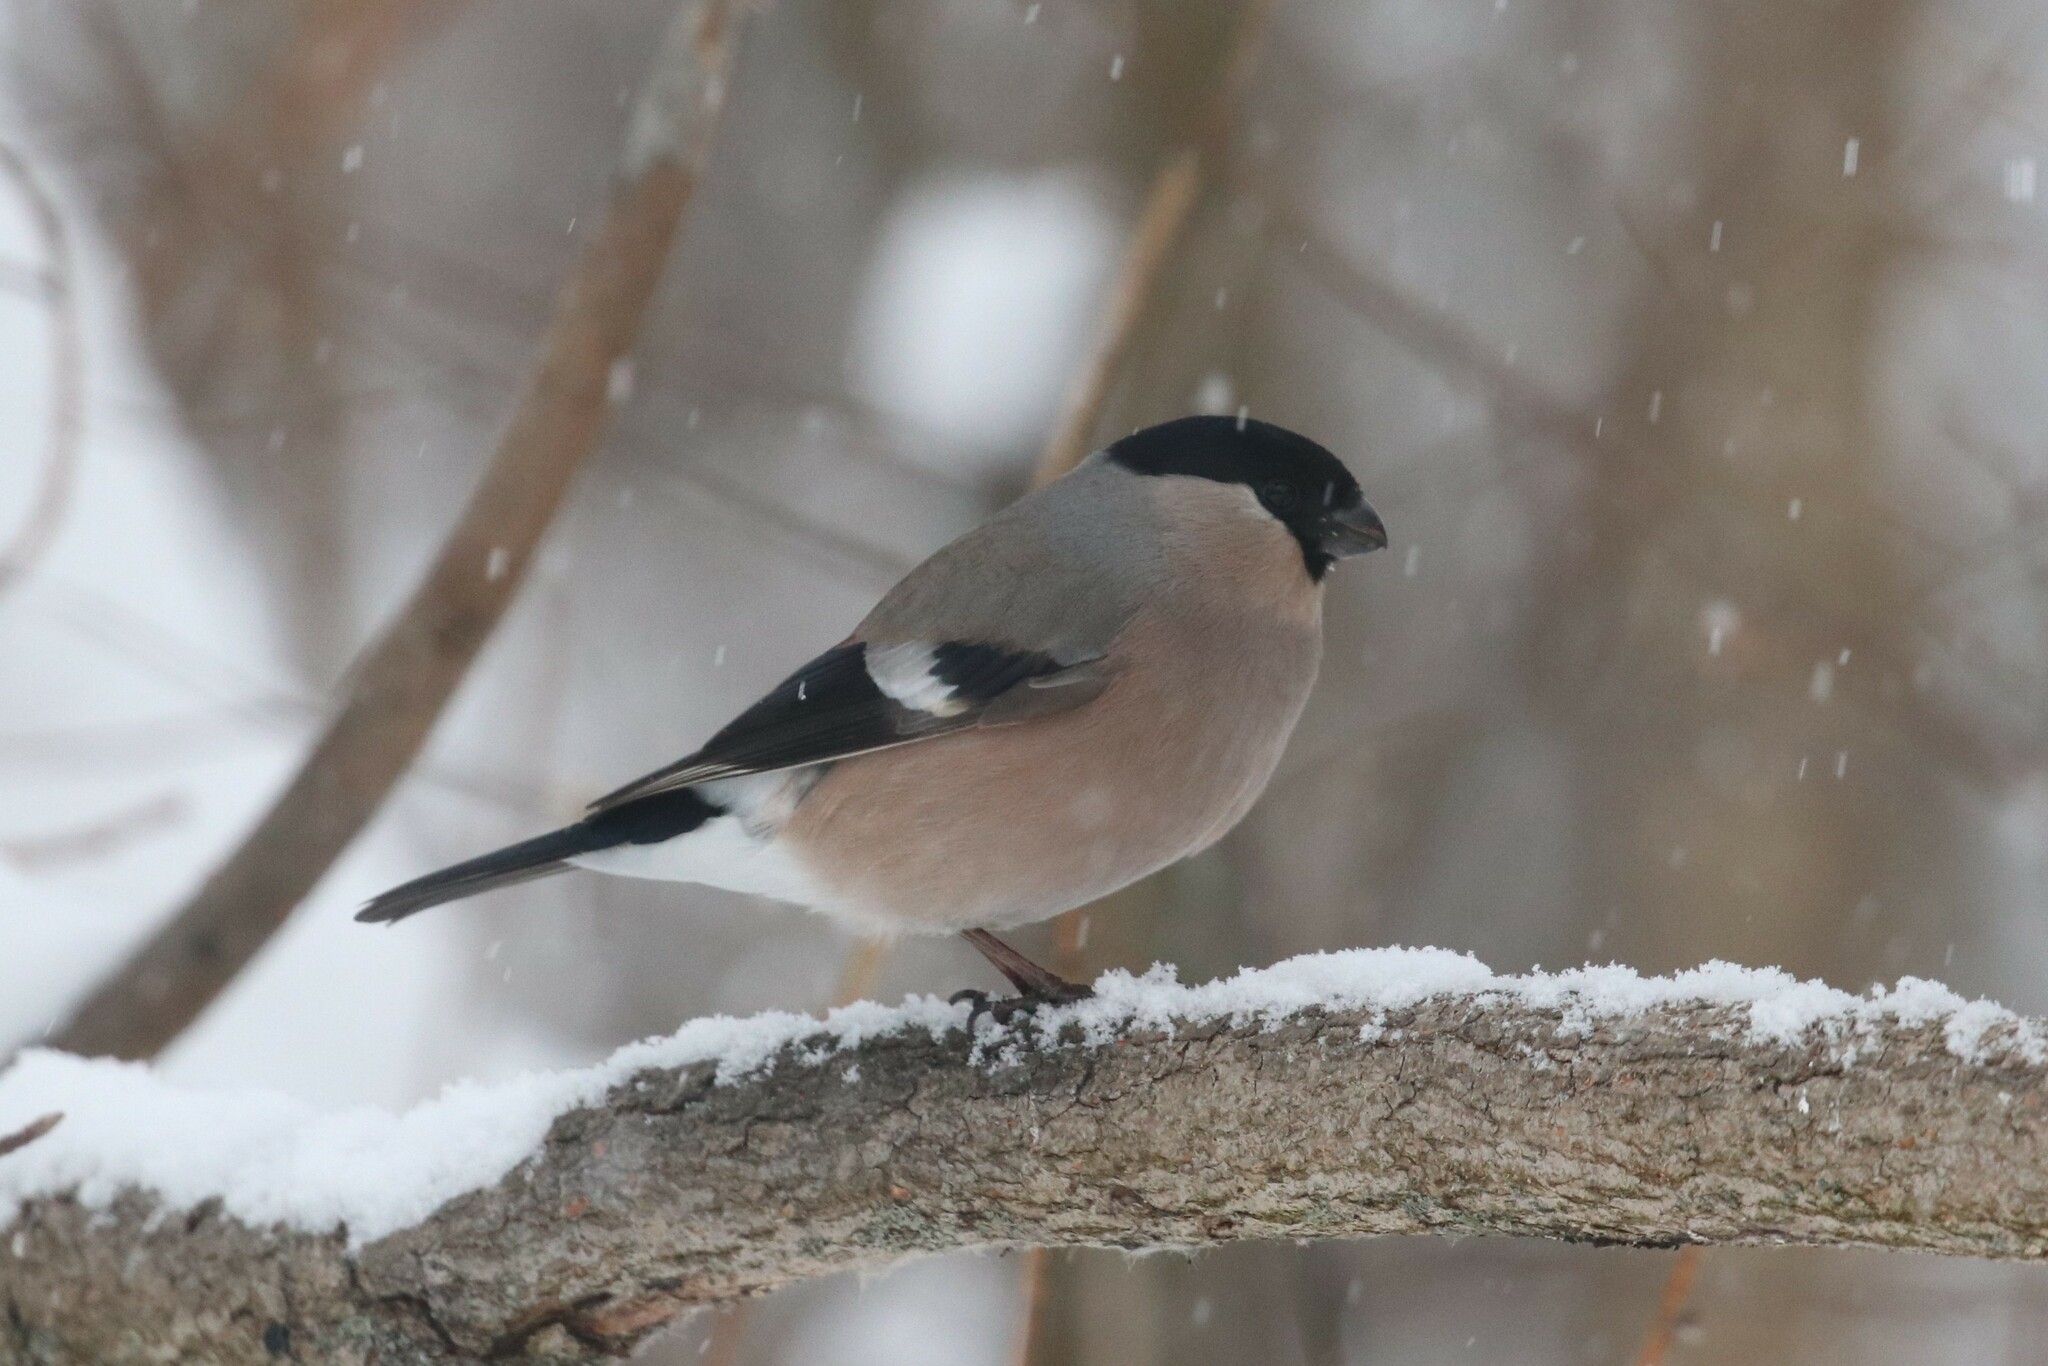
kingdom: Animalia
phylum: Chordata
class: Aves
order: Passeriformes
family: Fringillidae
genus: Pyrrhula
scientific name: Pyrrhula pyrrhula
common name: Eurasian bullfinch
